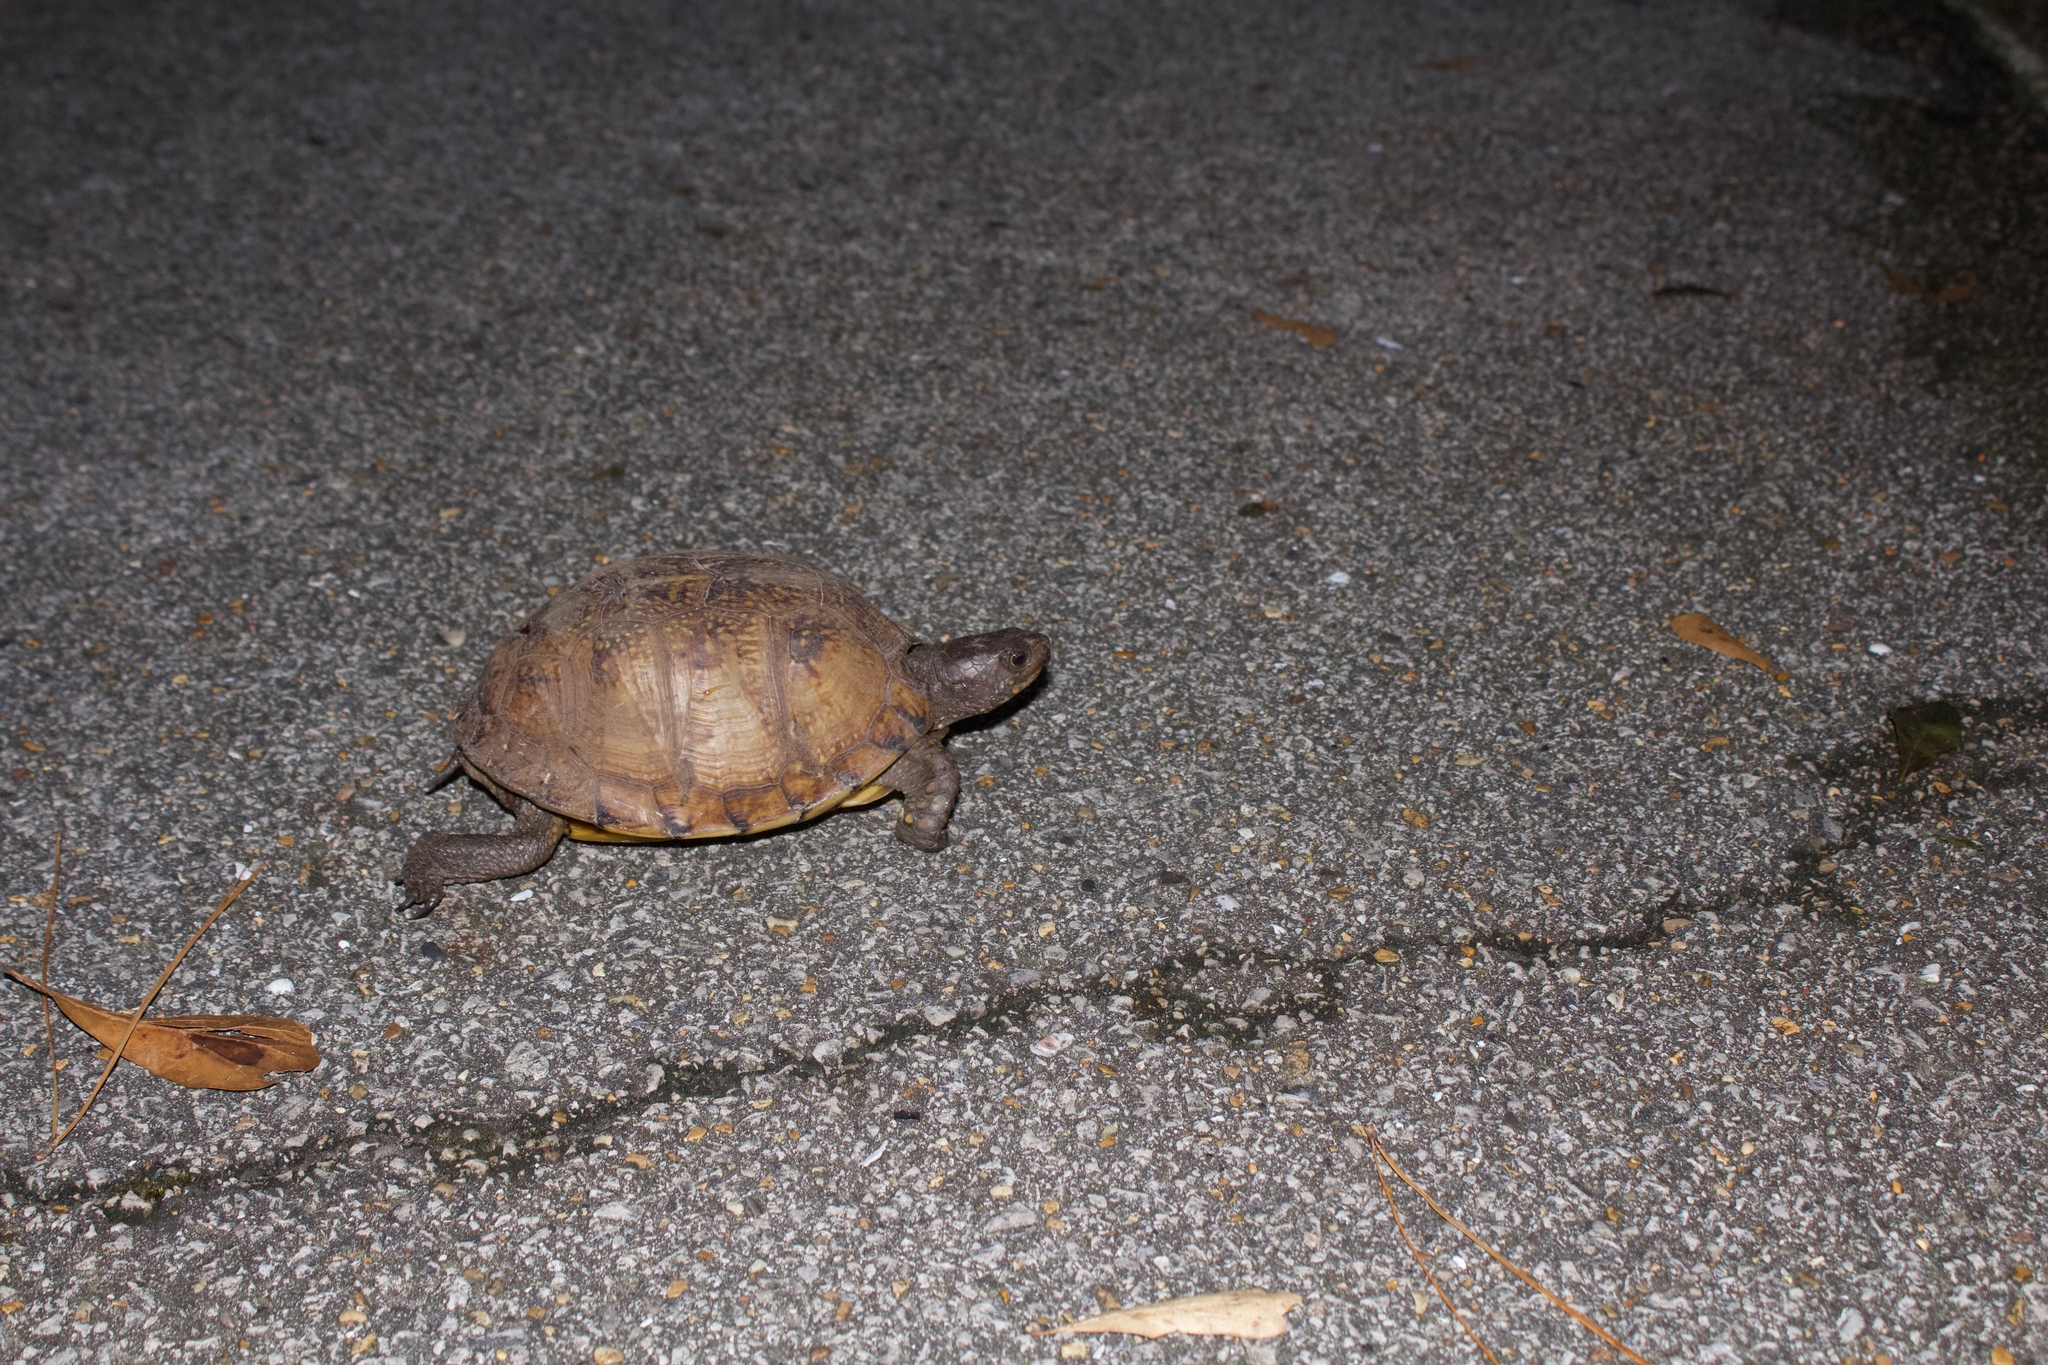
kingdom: Animalia
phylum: Chordata
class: Testudines
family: Emydidae
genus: Terrapene
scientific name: Terrapene carolina
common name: Common box turtle
